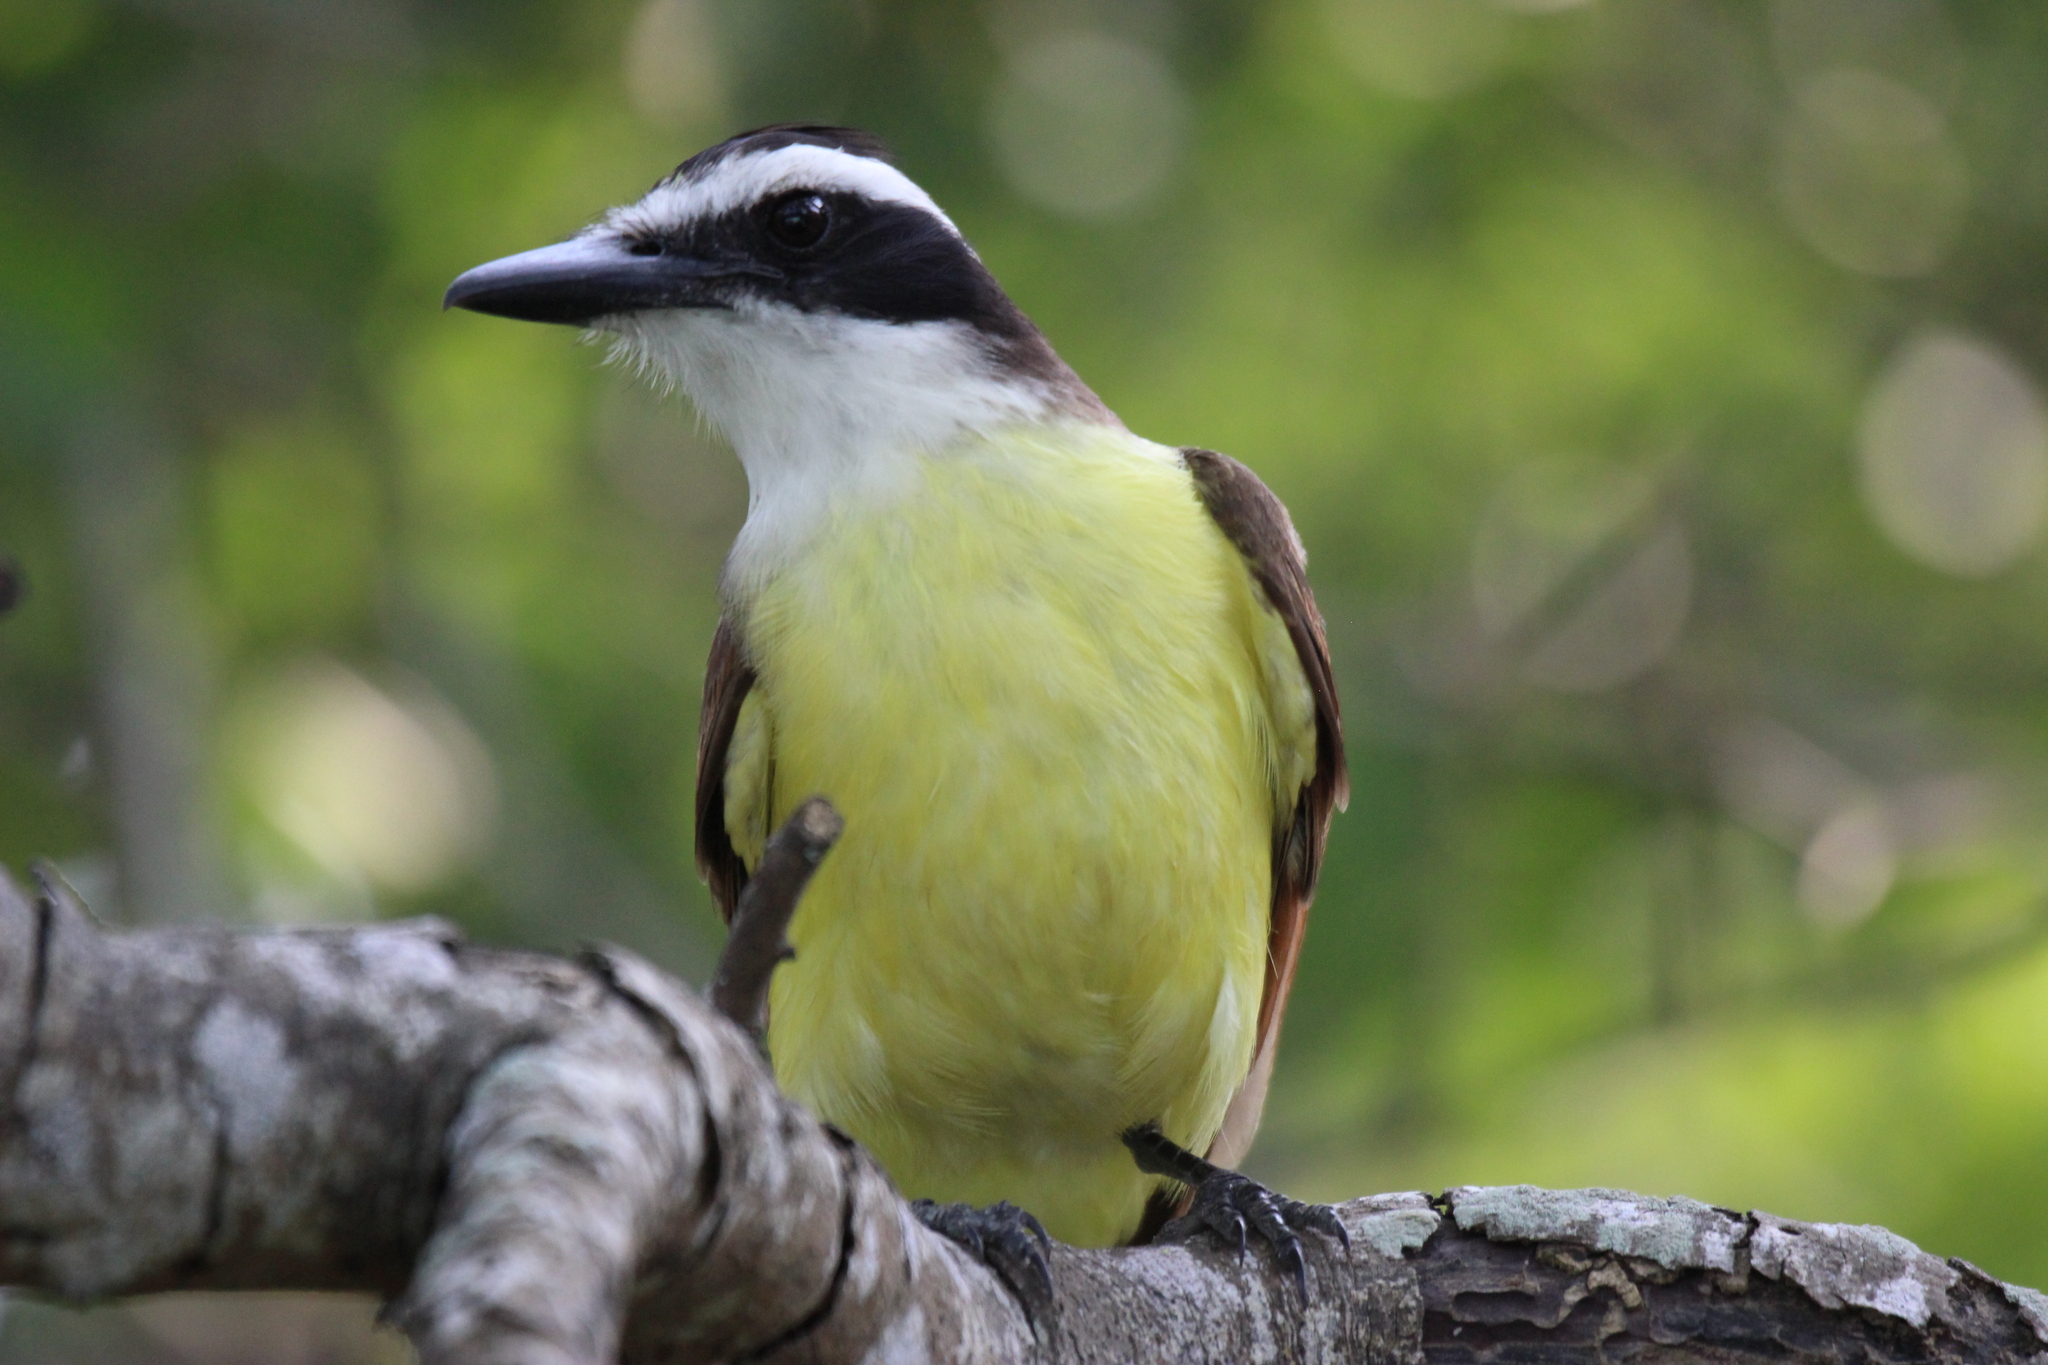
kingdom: Animalia
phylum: Chordata
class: Aves
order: Passeriformes
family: Tyrannidae
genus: Pitangus
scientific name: Pitangus sulphuratus
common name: Great kiskadee
